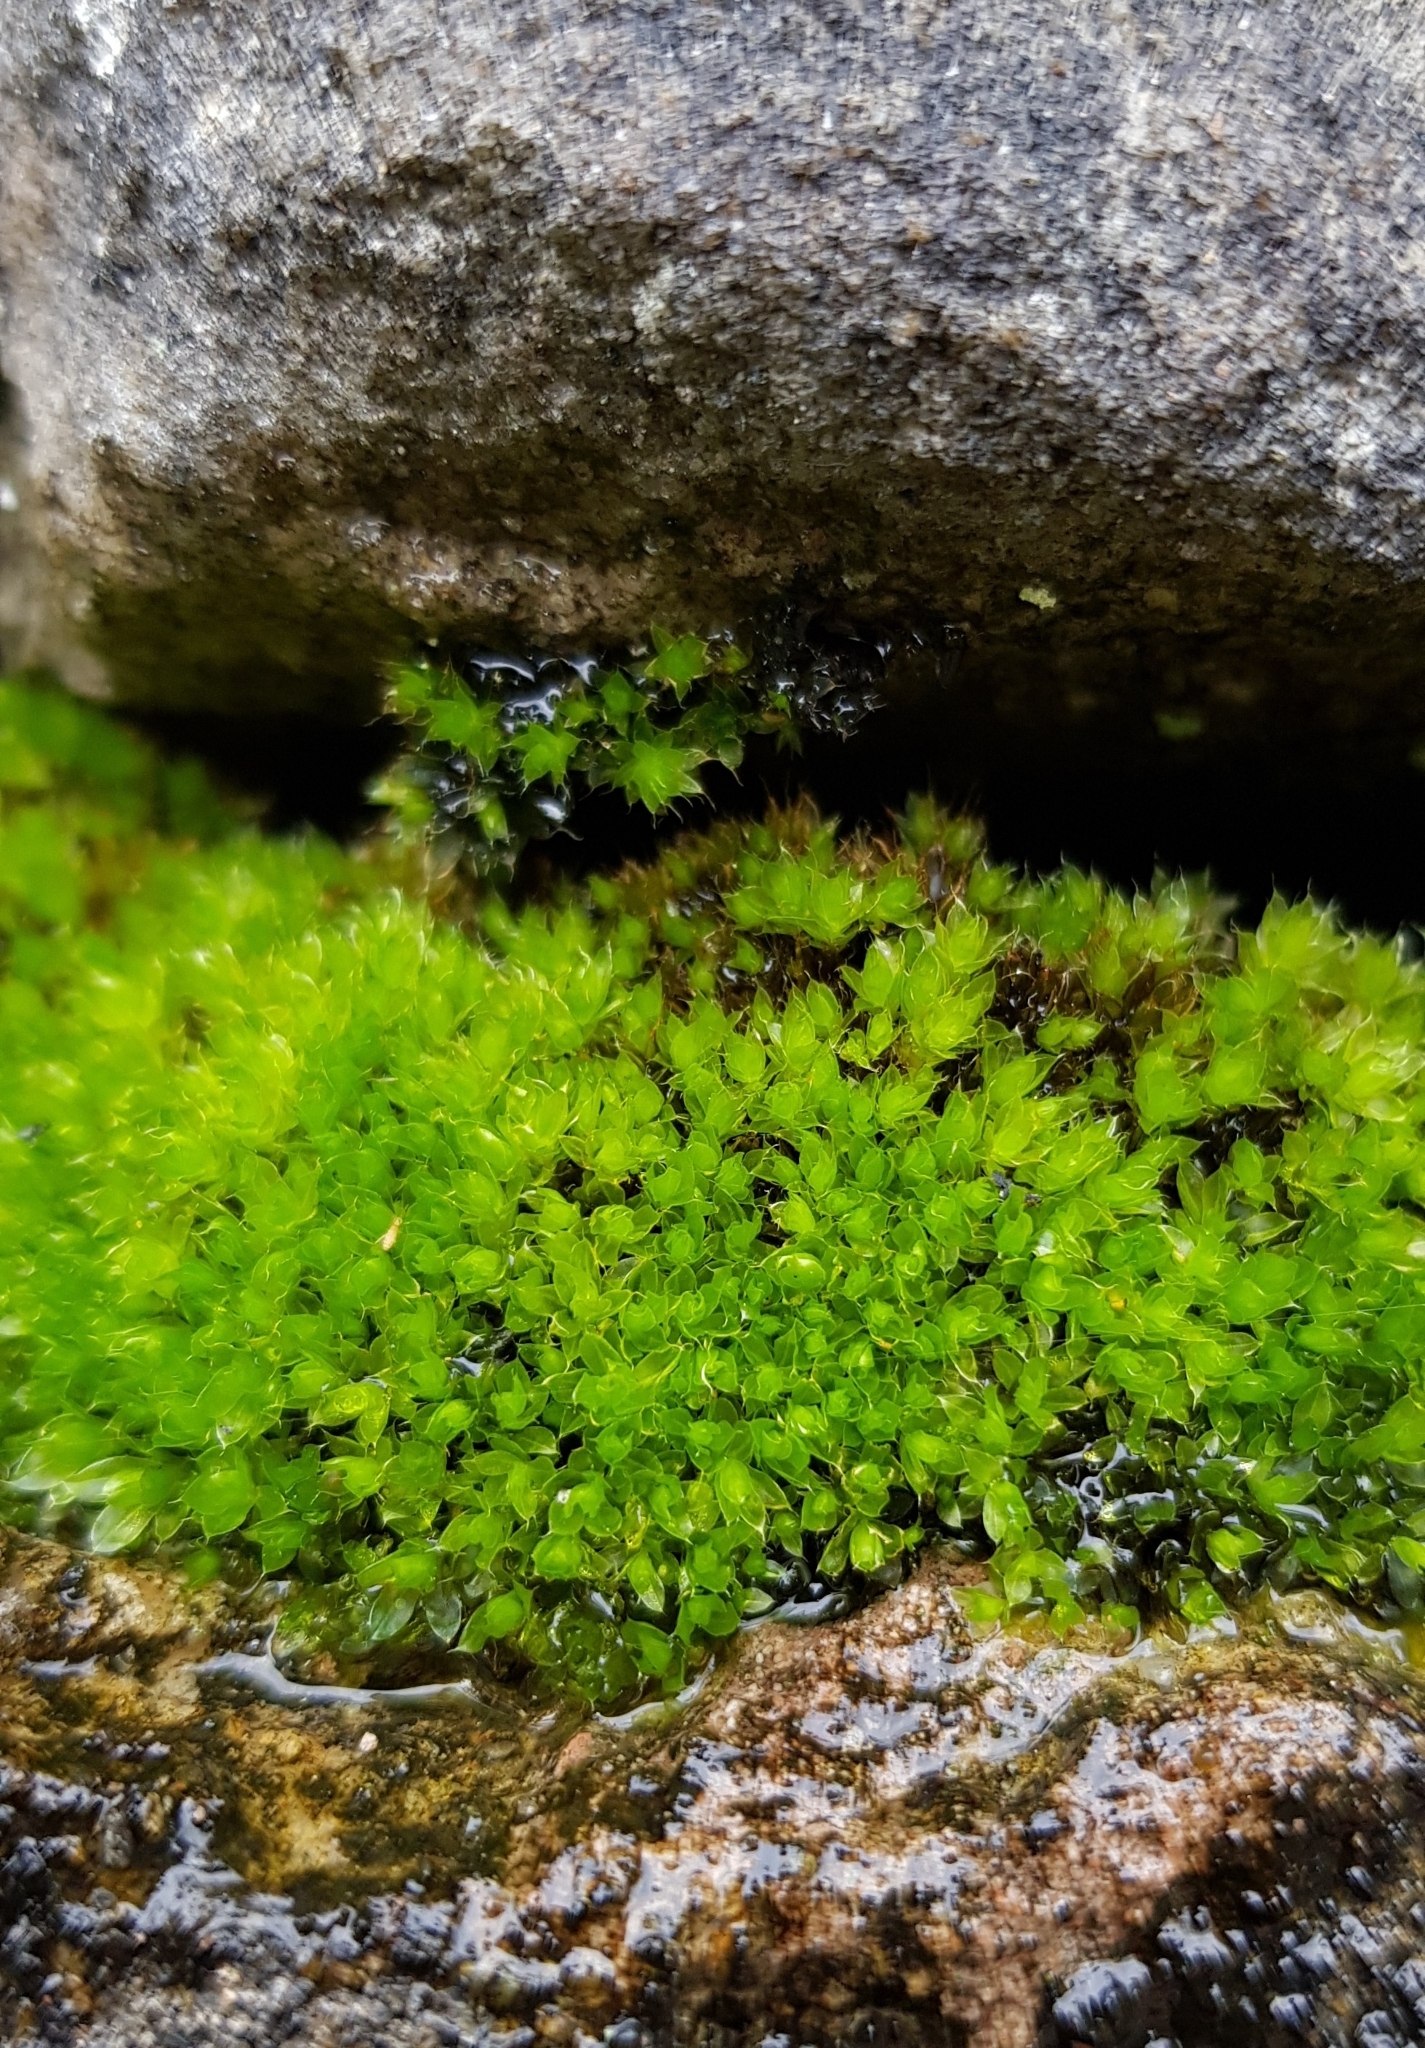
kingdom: Plantae
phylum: Bryophyta
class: Bryopsida
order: Bryales
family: Bryaceae
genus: Rosulabryum
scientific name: Rosulabryum capillare
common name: Capillary thread-moss
